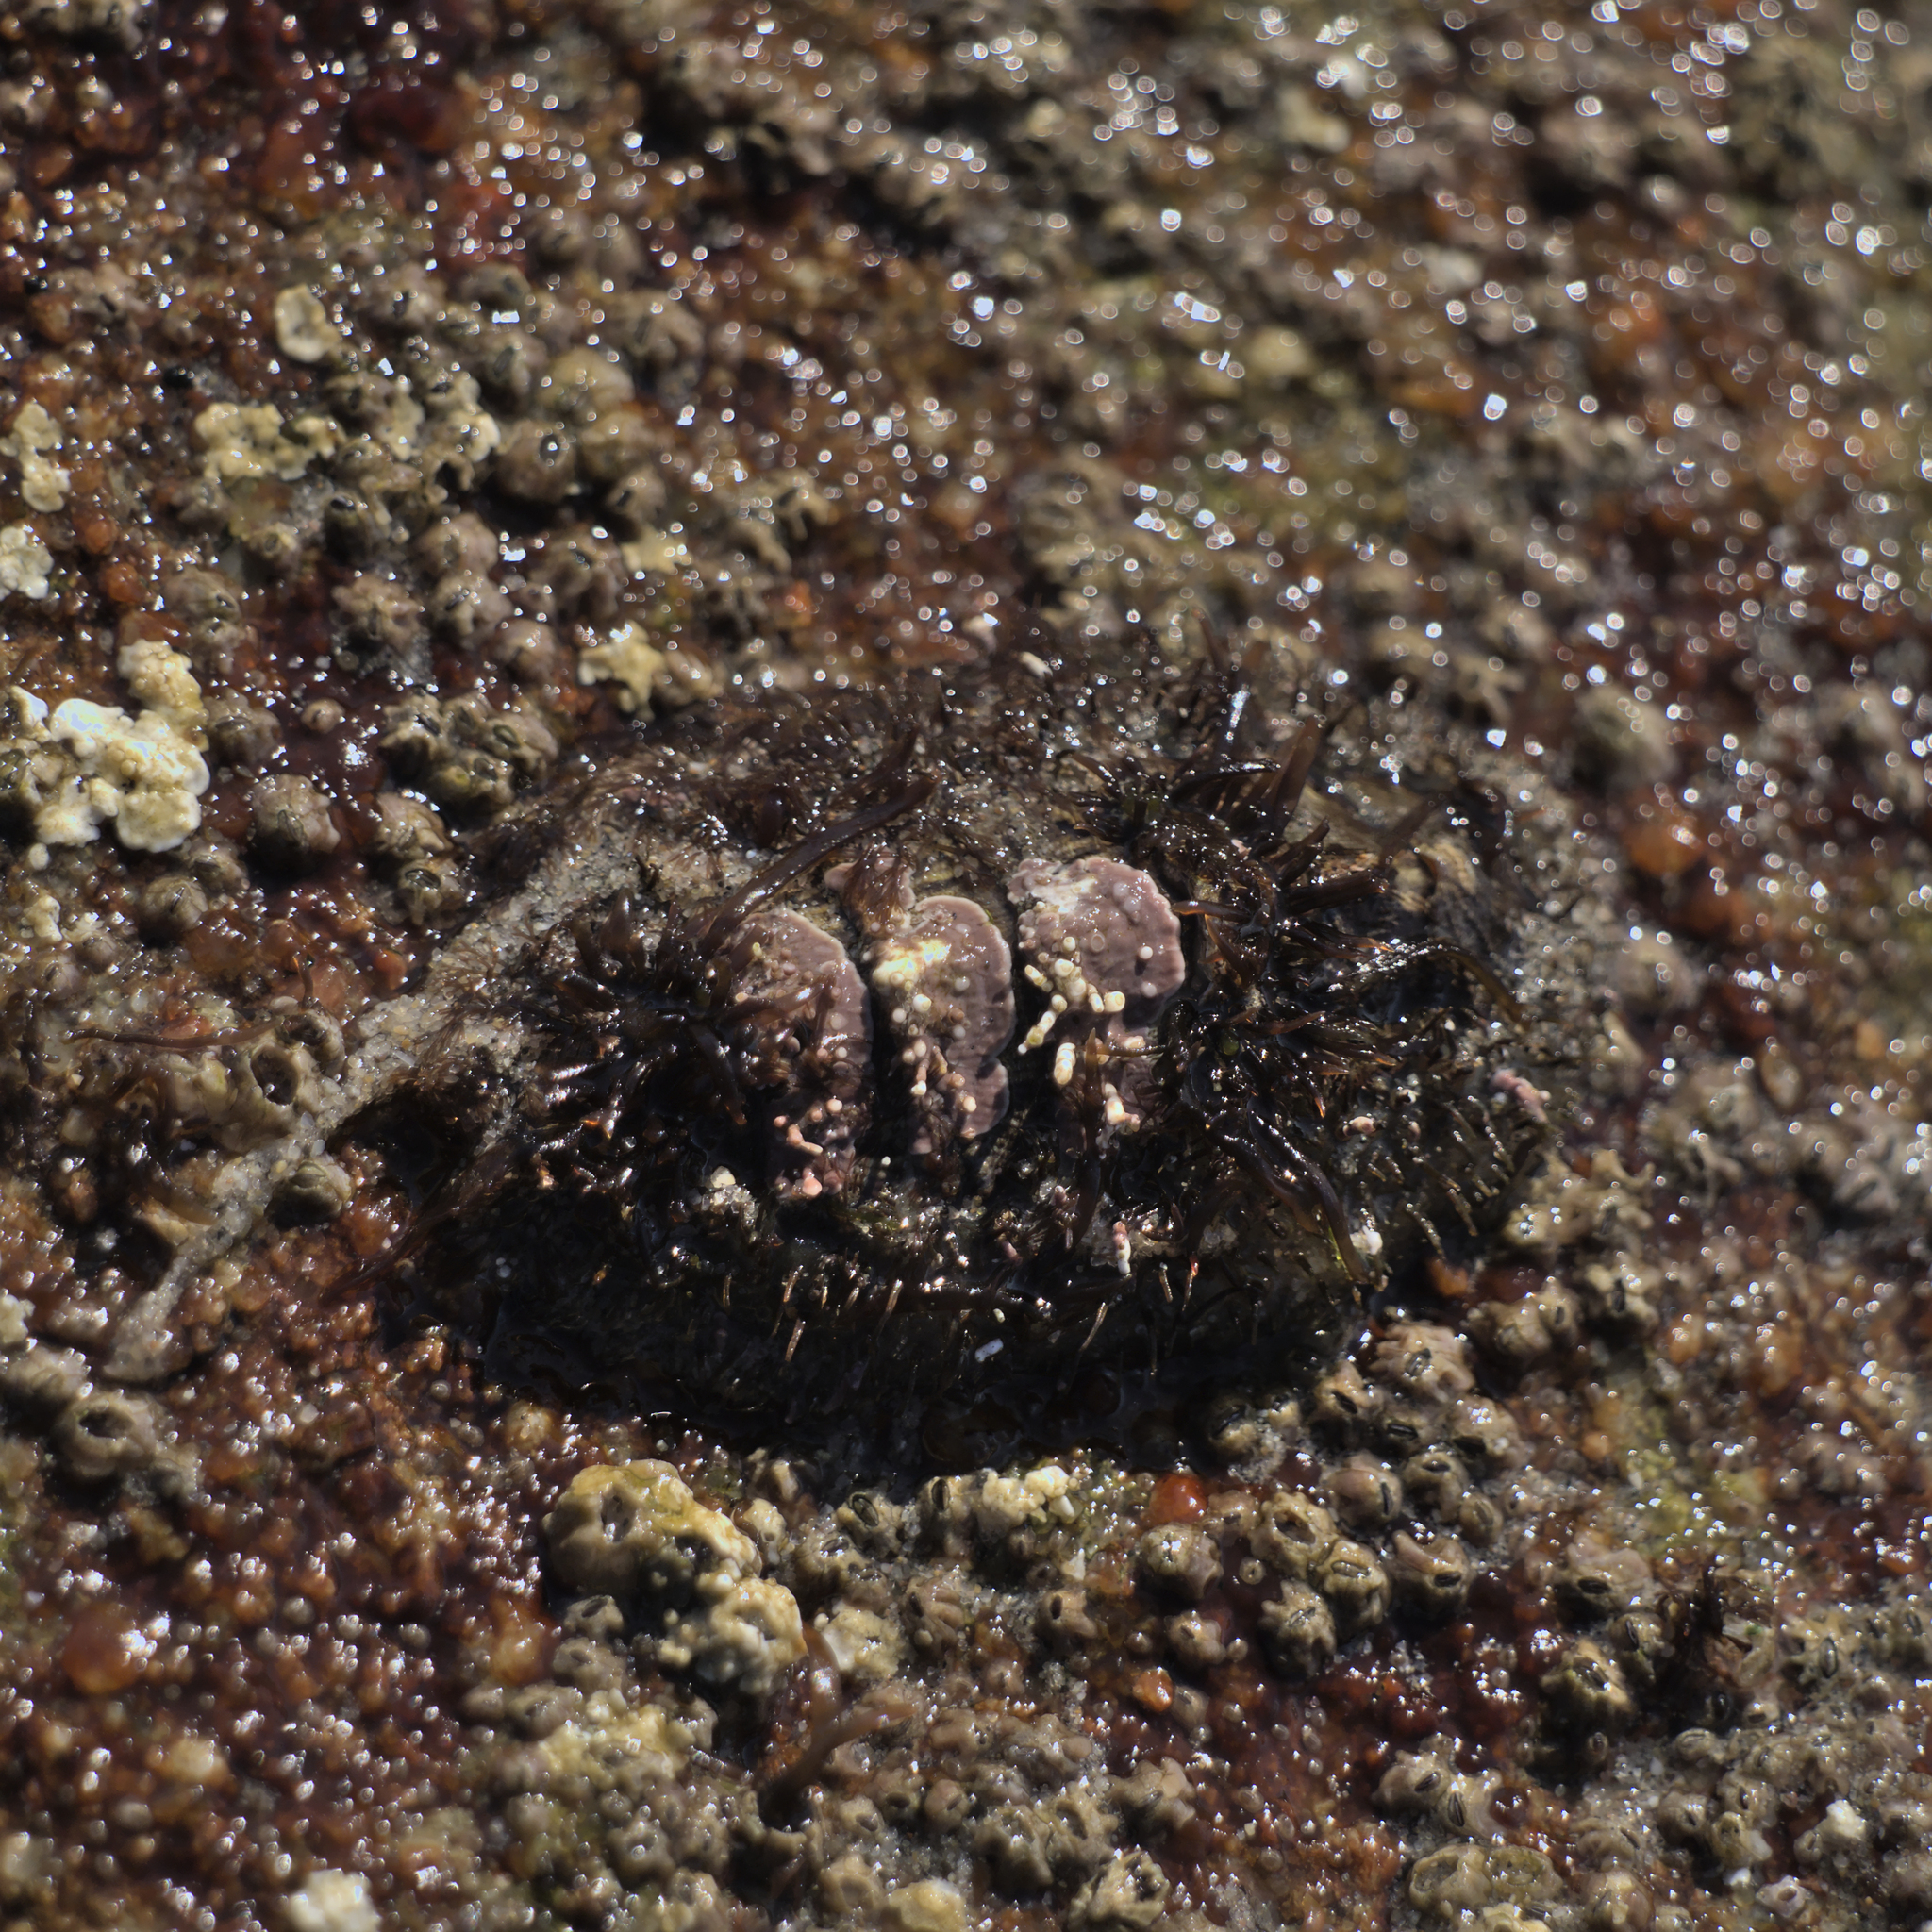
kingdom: Animalia
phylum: Mollusca
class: Polyplacophora
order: Chitonida
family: Mopaliidae
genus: Mopalia
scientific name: Mopalia muscosa
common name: Mossy chiton
